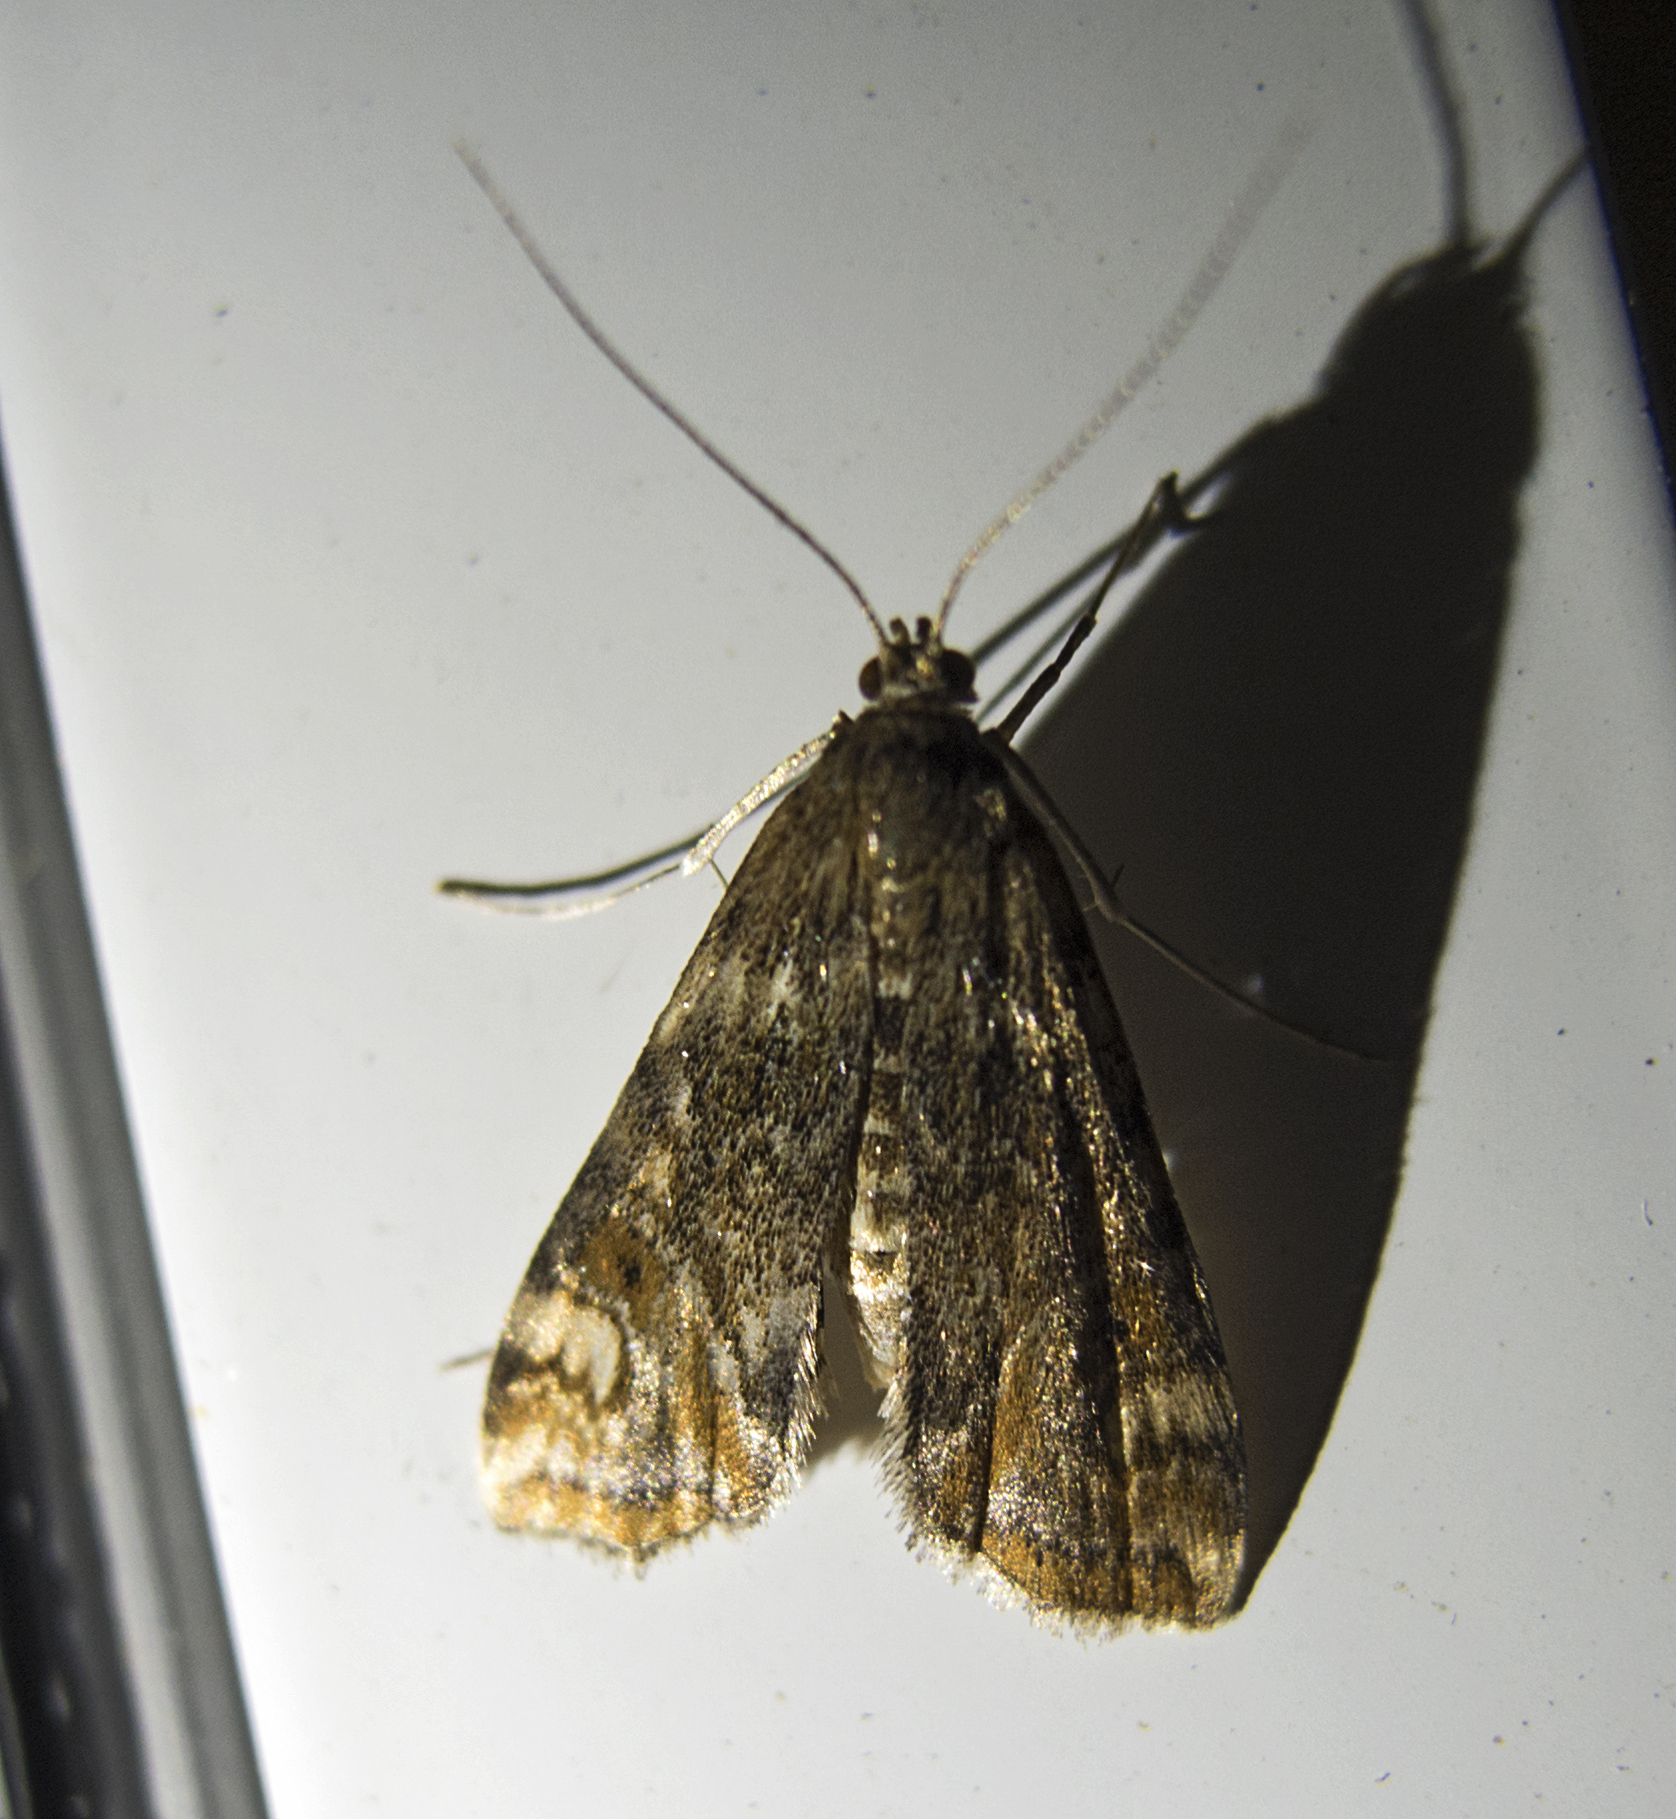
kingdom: Animalia
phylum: Arthropoda
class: Insecta
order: Lepidoptera
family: Crambidae
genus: Cataclysta
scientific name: Cataclysta lemnata
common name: Small china-mark
